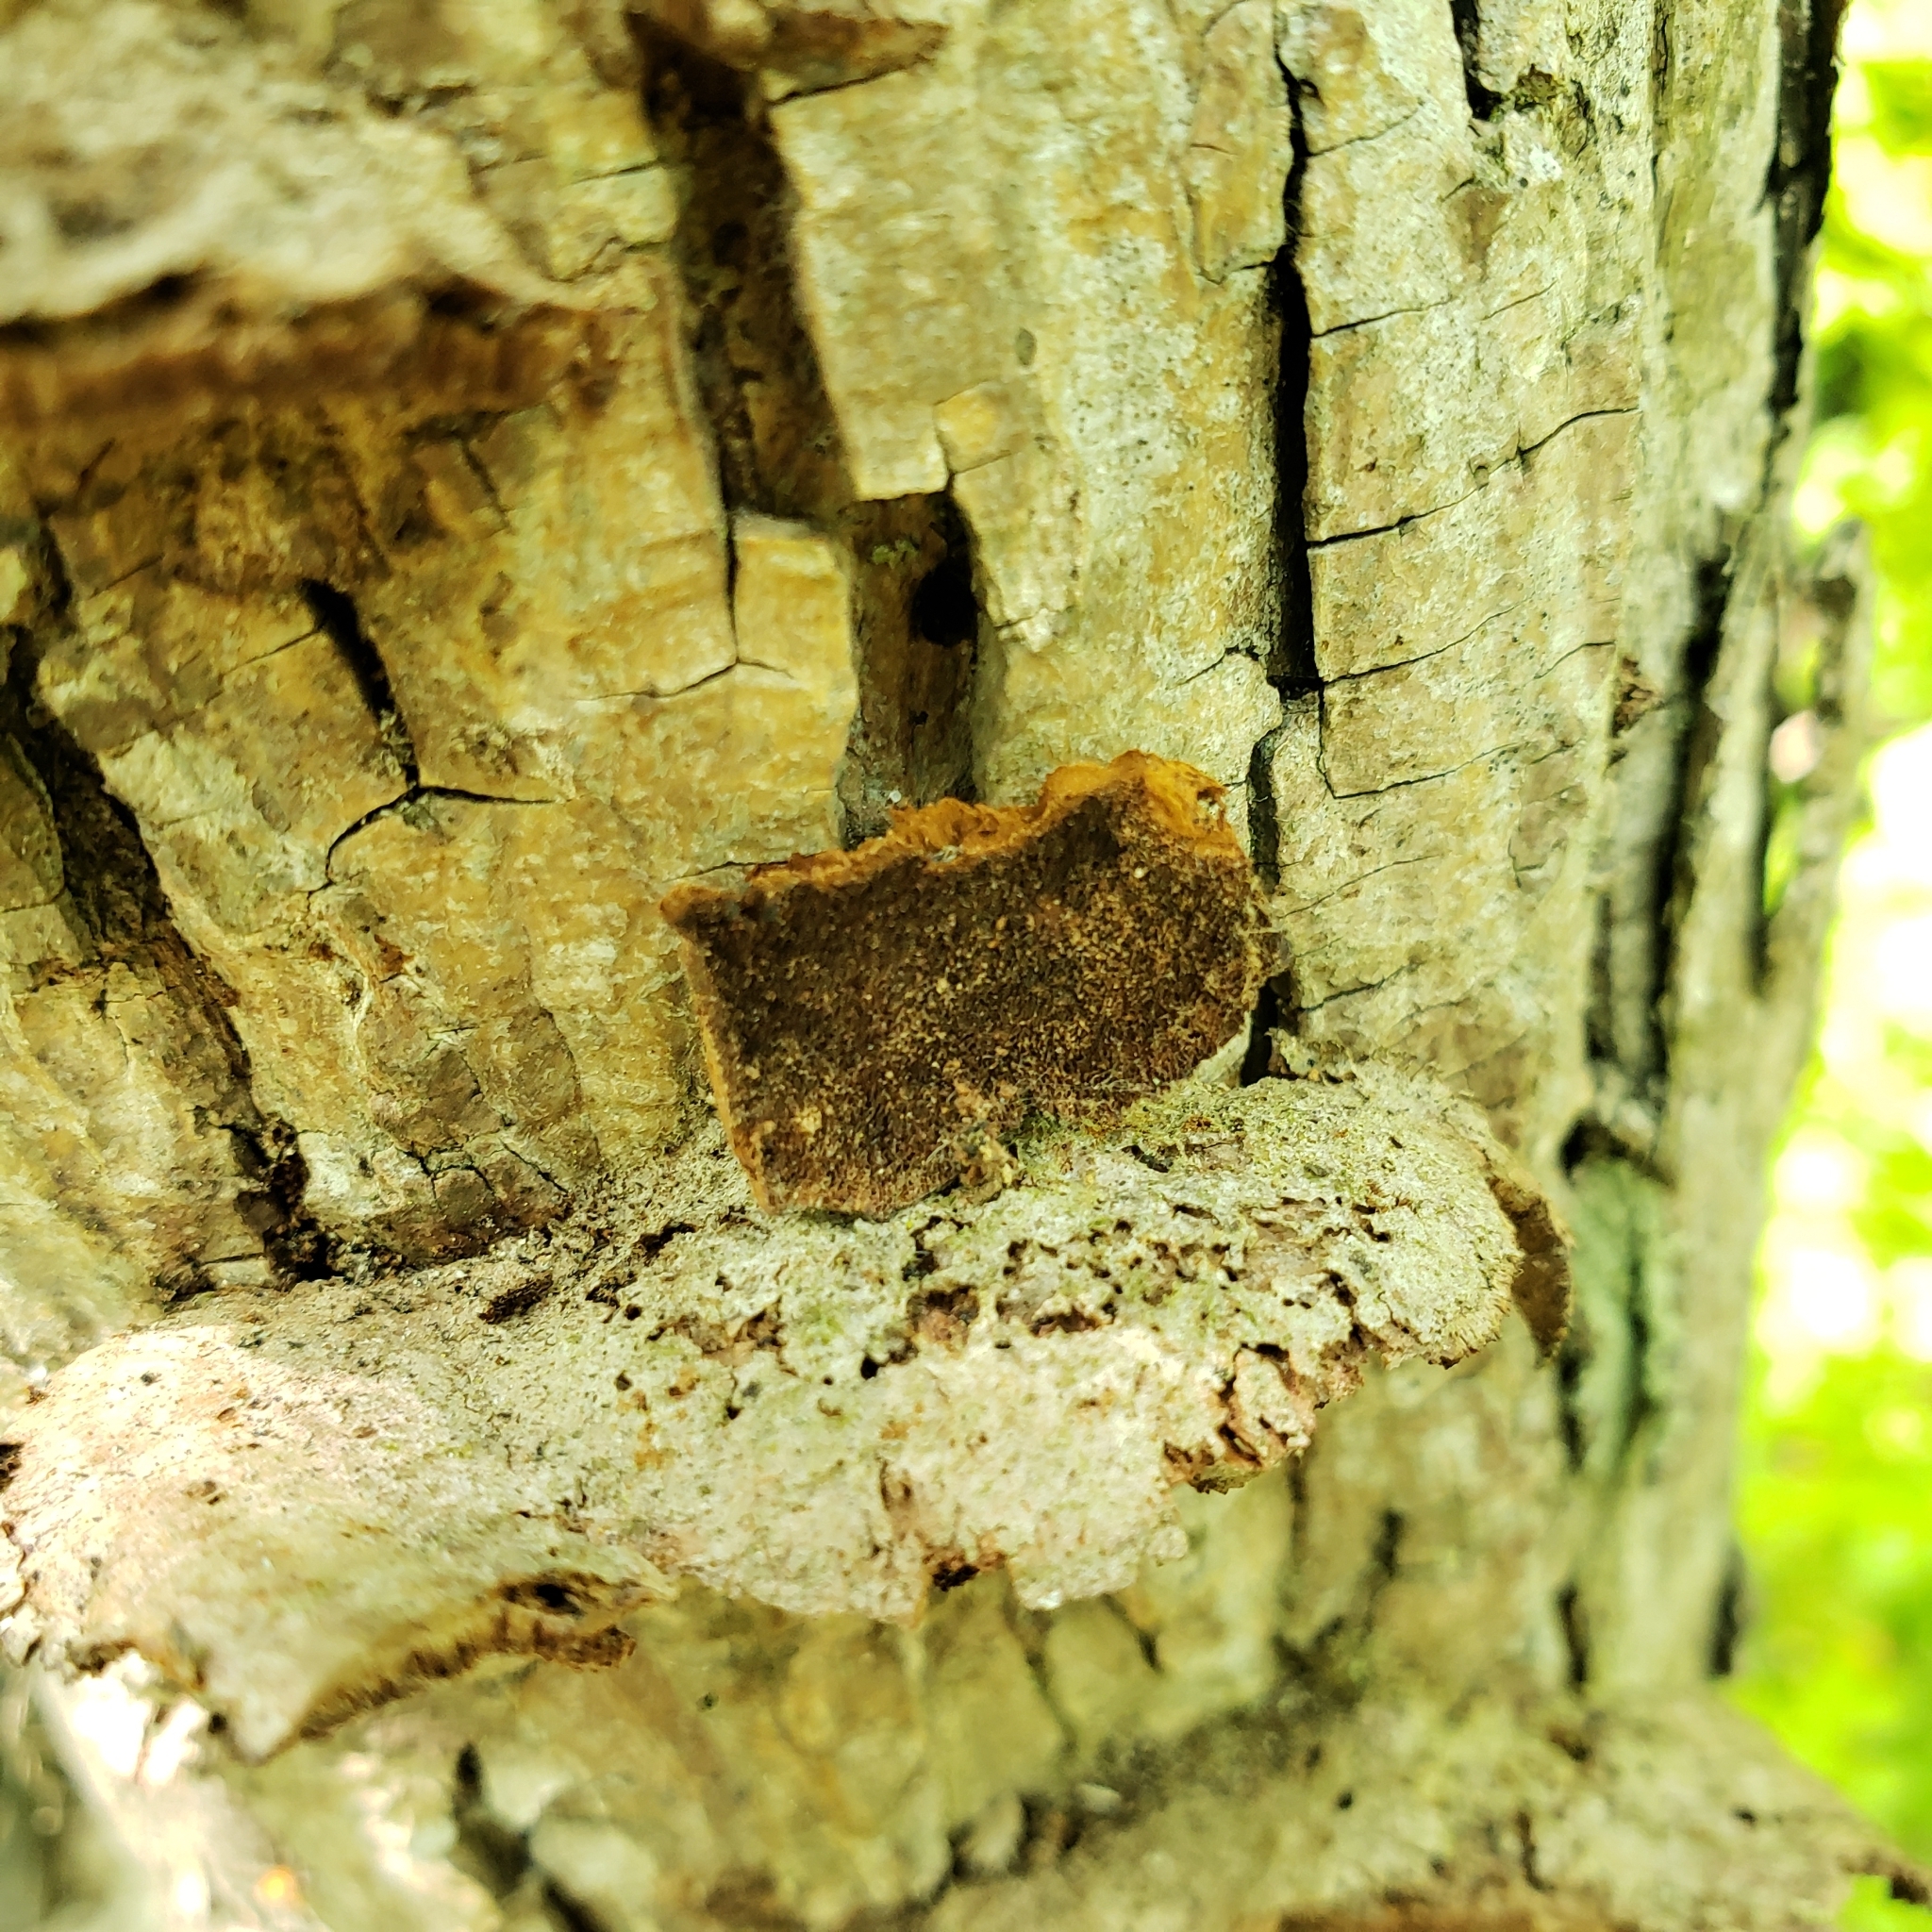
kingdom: Fungi
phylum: Basidiomycota
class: Agaricomycetes
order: Hymenochaetales
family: Hymenochaetaceae
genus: Phellinus
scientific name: Phellinus gilvus
